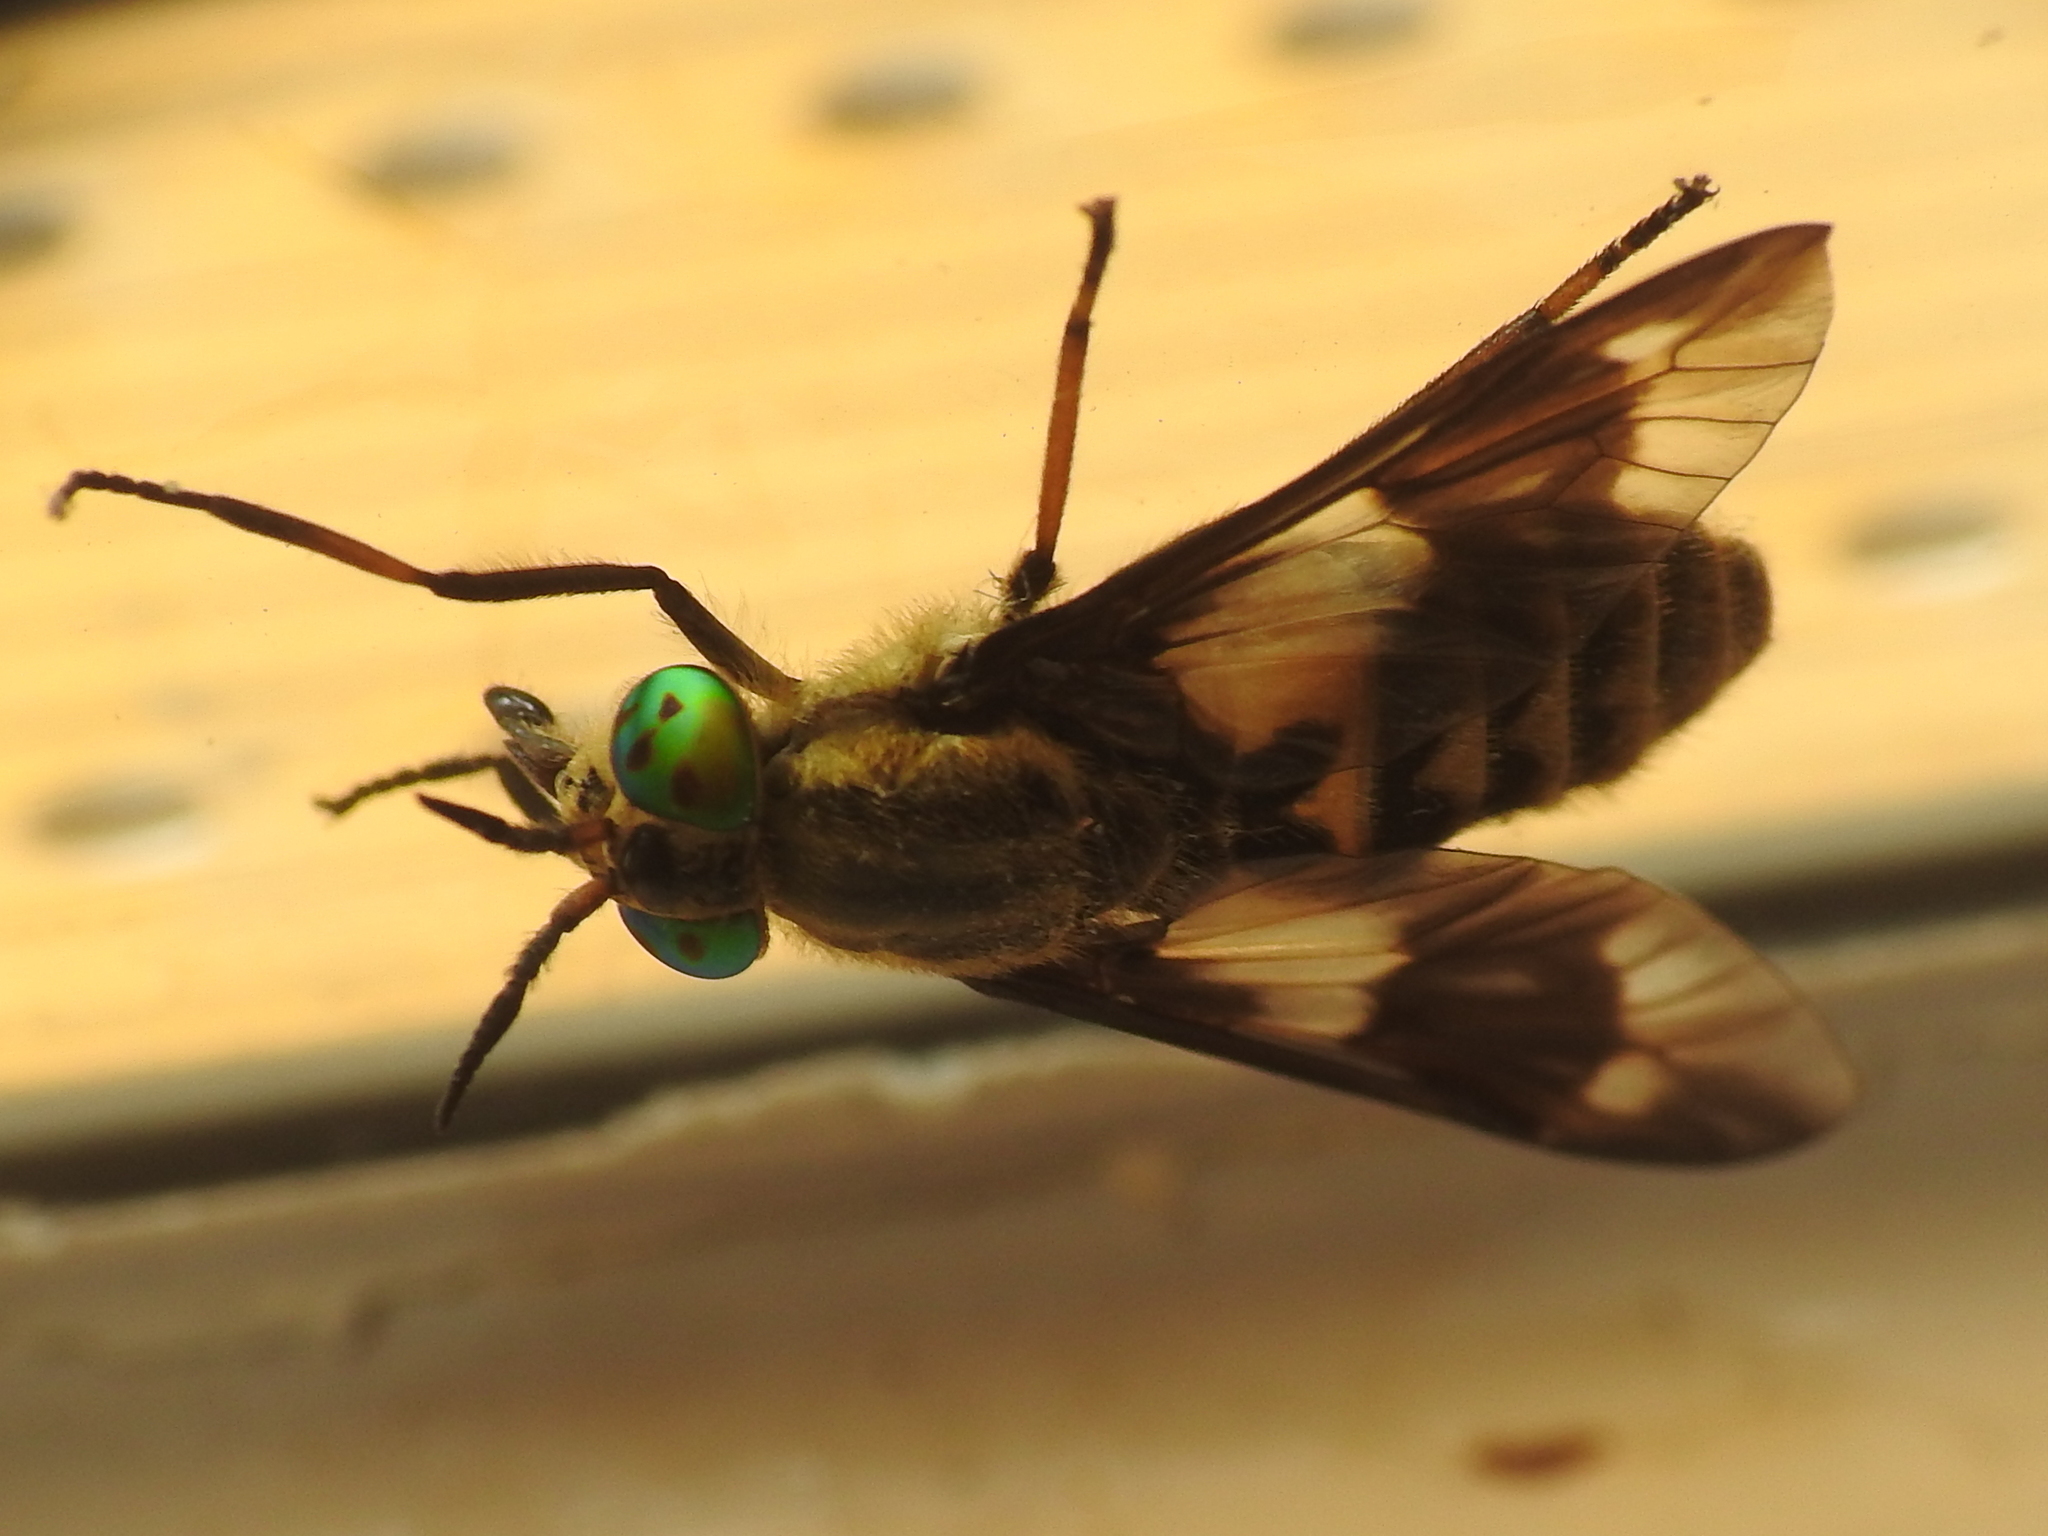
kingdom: Animalia
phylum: Arthropoda
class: Insecta
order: Diptera
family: Tabanidae
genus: Chrysops
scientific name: Chrysops relictus
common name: Twin-lobed deerfly
